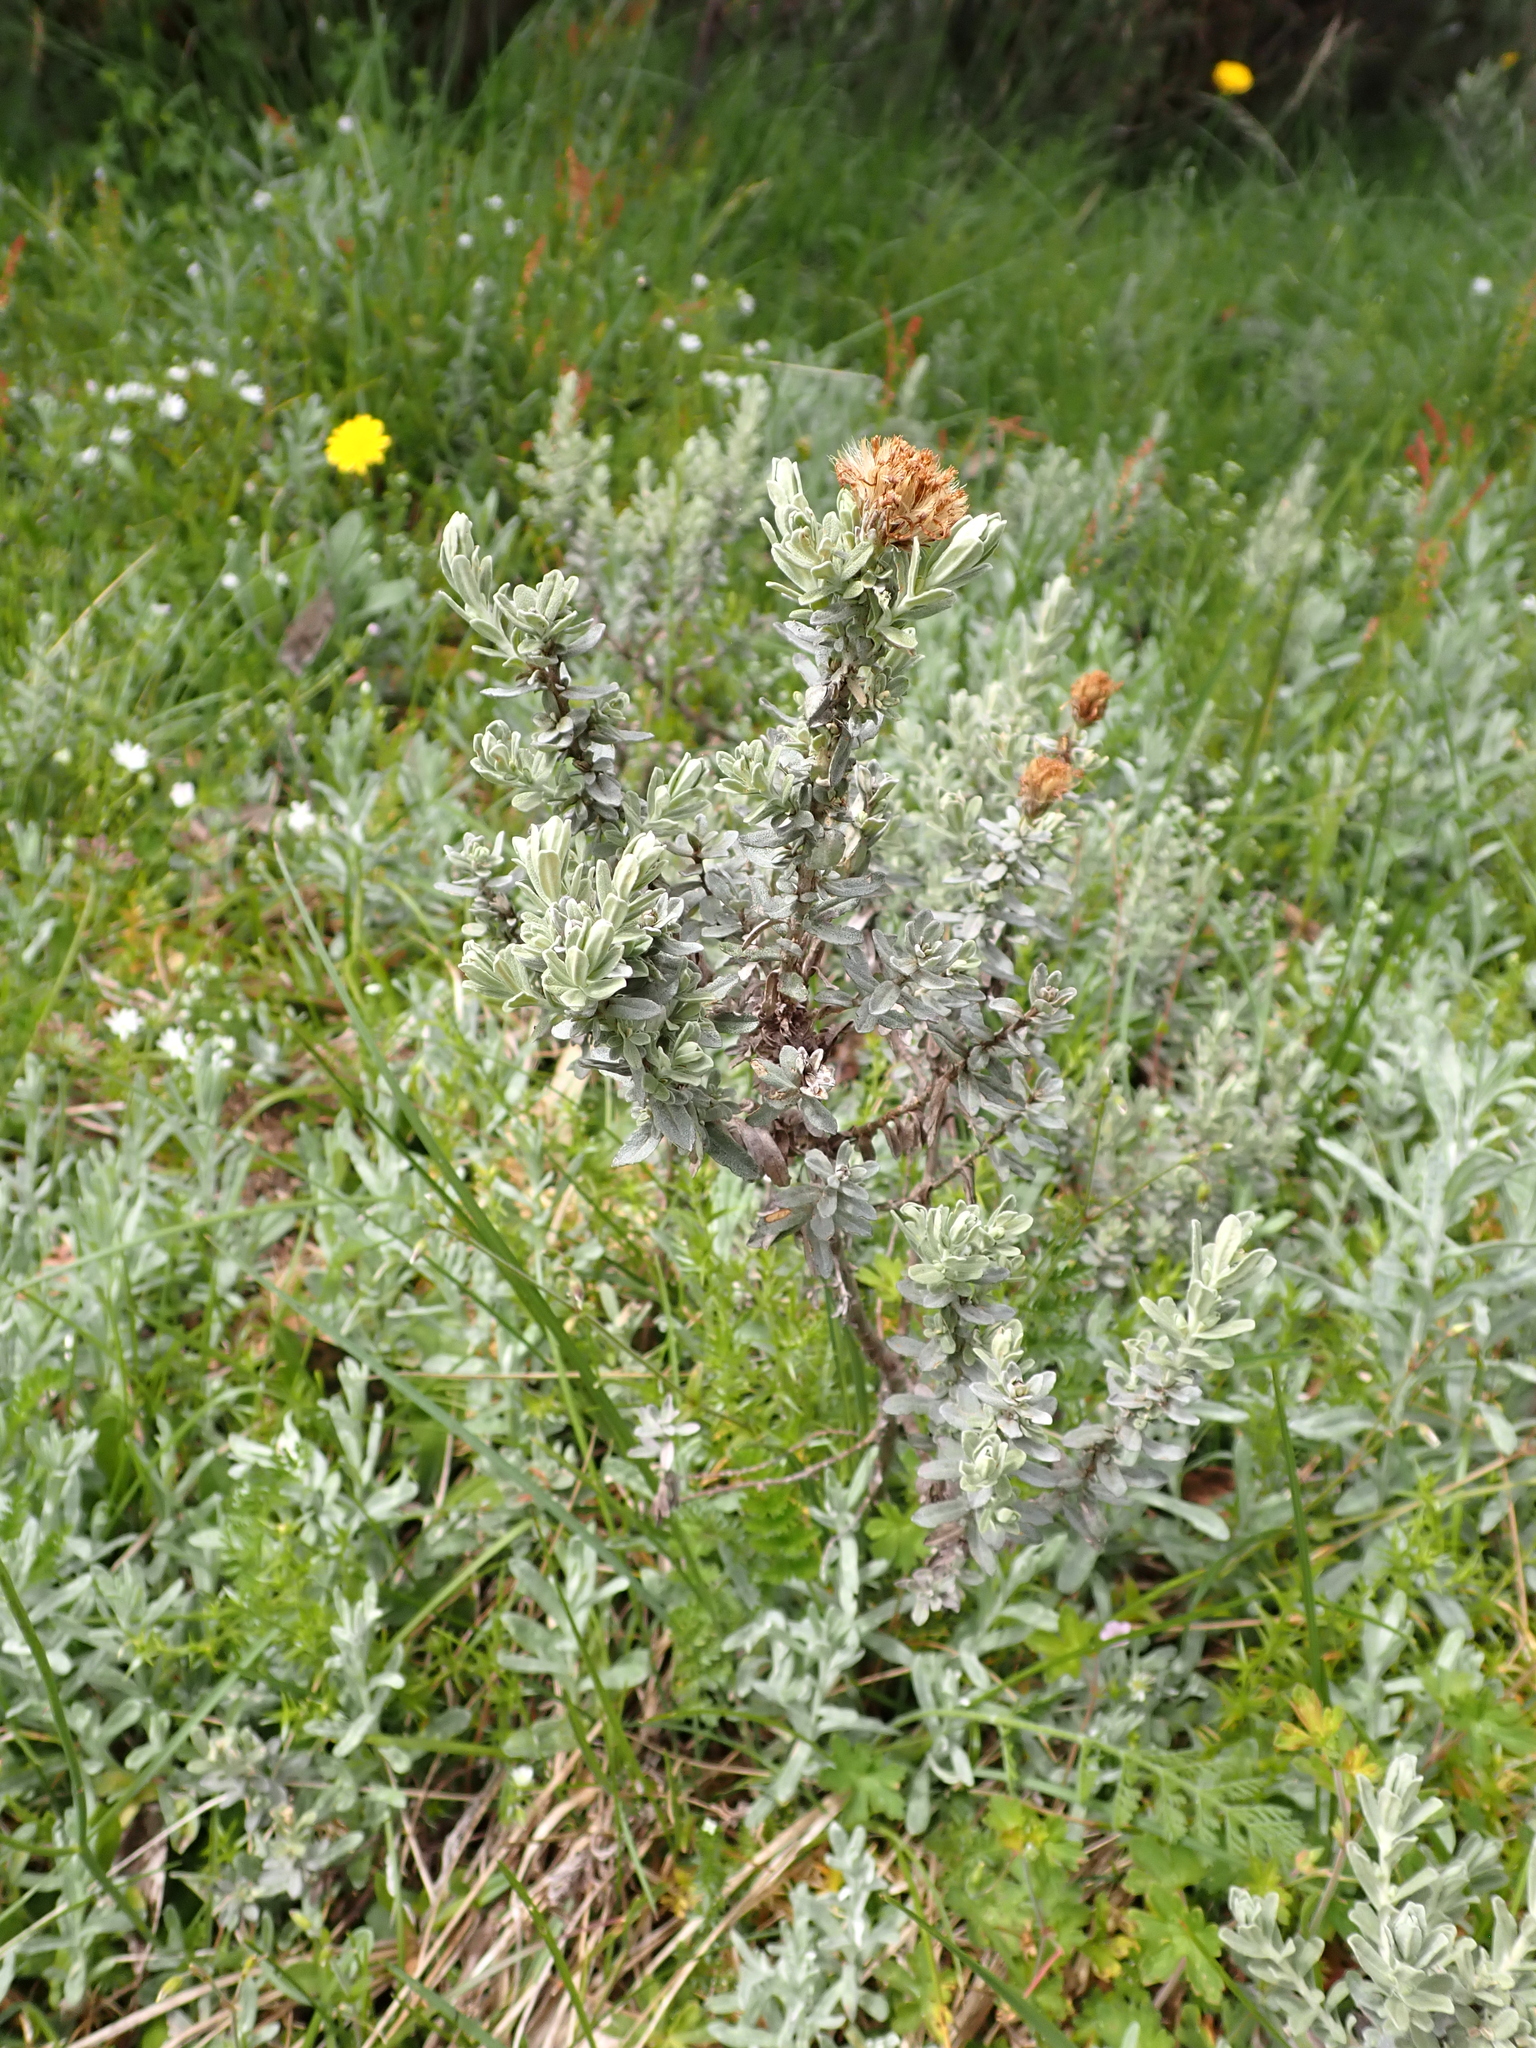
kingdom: Plantae
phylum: Tracheophyta
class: Magnoliopsida
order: Asterales
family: Asteraceae
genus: Olearia
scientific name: Olearia brevipedunculata
